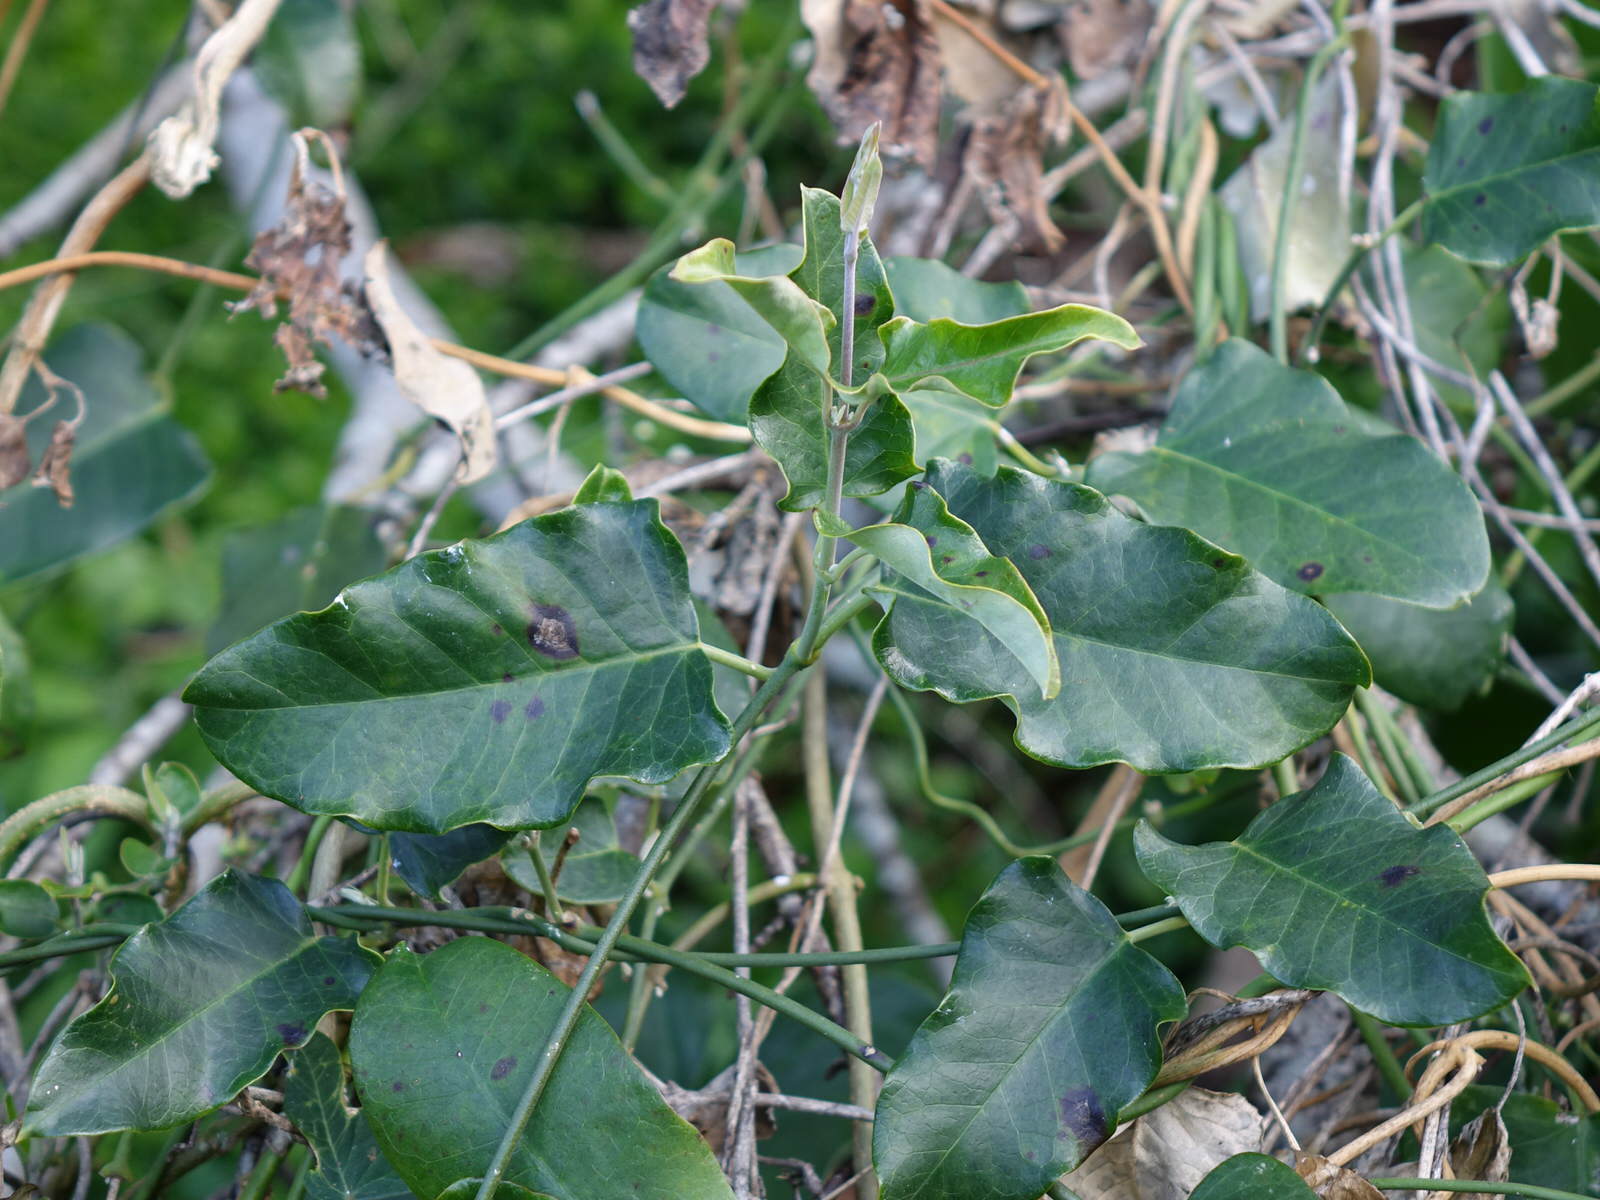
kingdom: Plantae
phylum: Tracheophyta
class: Magnoliopsida
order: Gentianales
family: Apocynaceae
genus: Araujia
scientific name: Araujia sericifera
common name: White bladderflower
